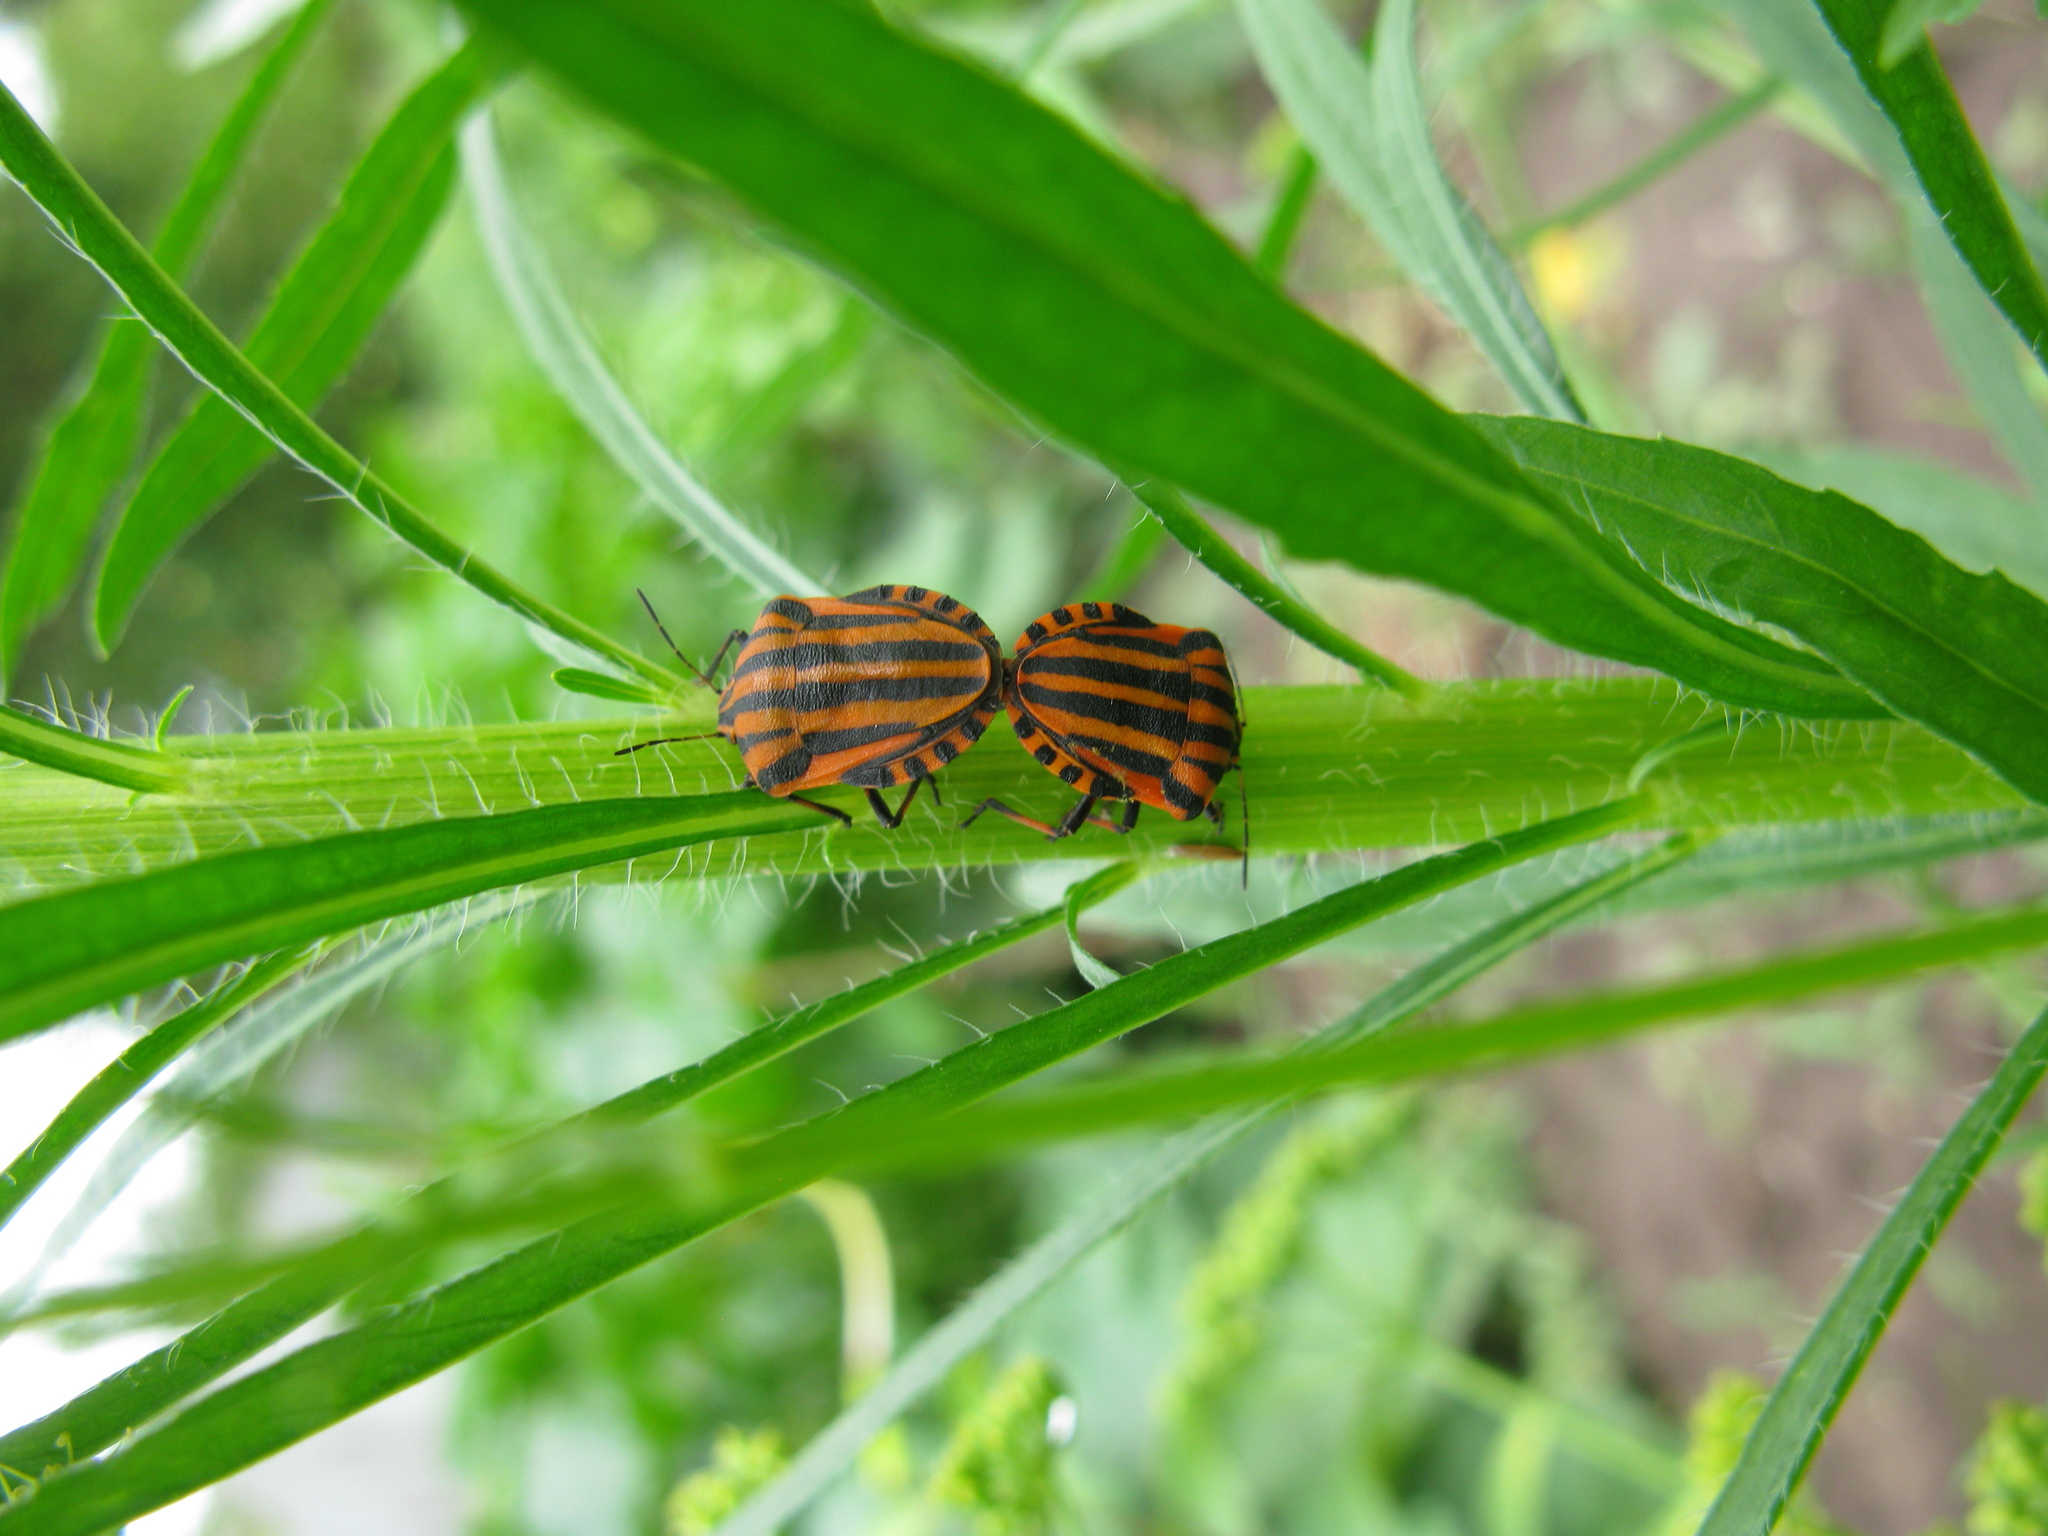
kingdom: Animalia
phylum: Arthropoda
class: Insecta
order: Hemiptera
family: Pentatomidae
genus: Graphosoma
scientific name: Graphosoma italicum
